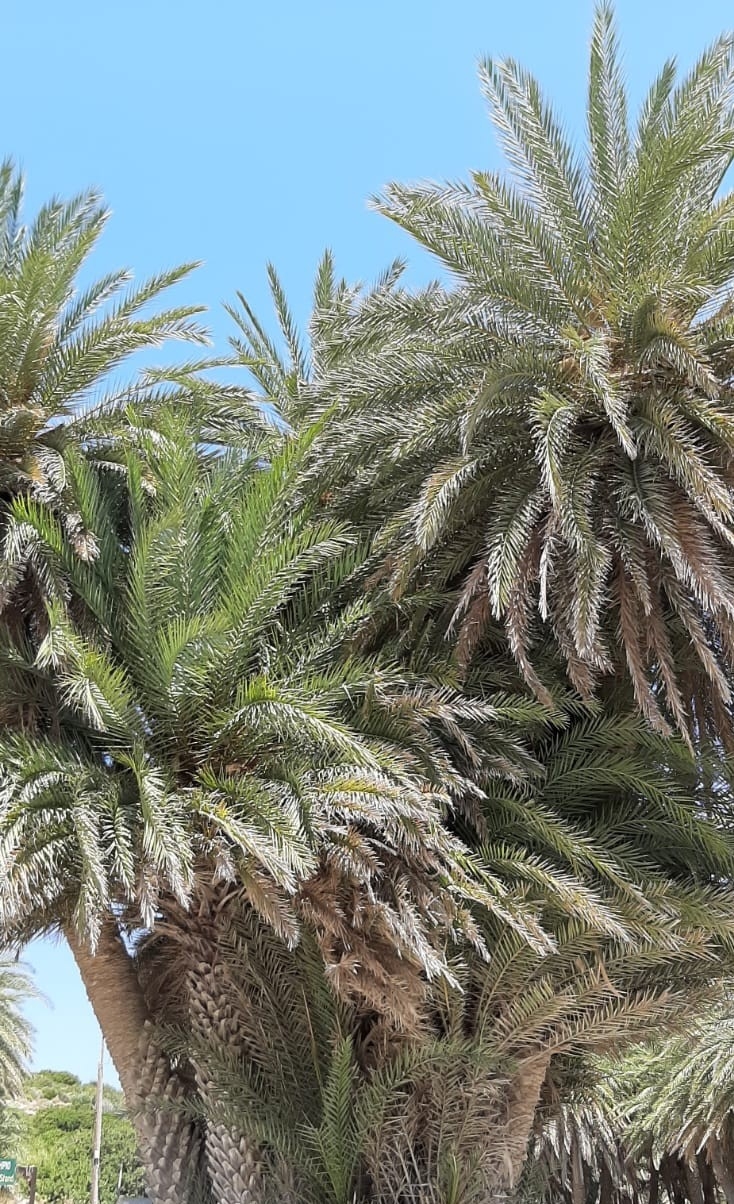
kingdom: Plantae
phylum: Tracheophyta
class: Liliopsida
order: Arecales
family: Arecaceae
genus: Phoenix
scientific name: Phoenix theophrasti
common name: Cretan date palm
